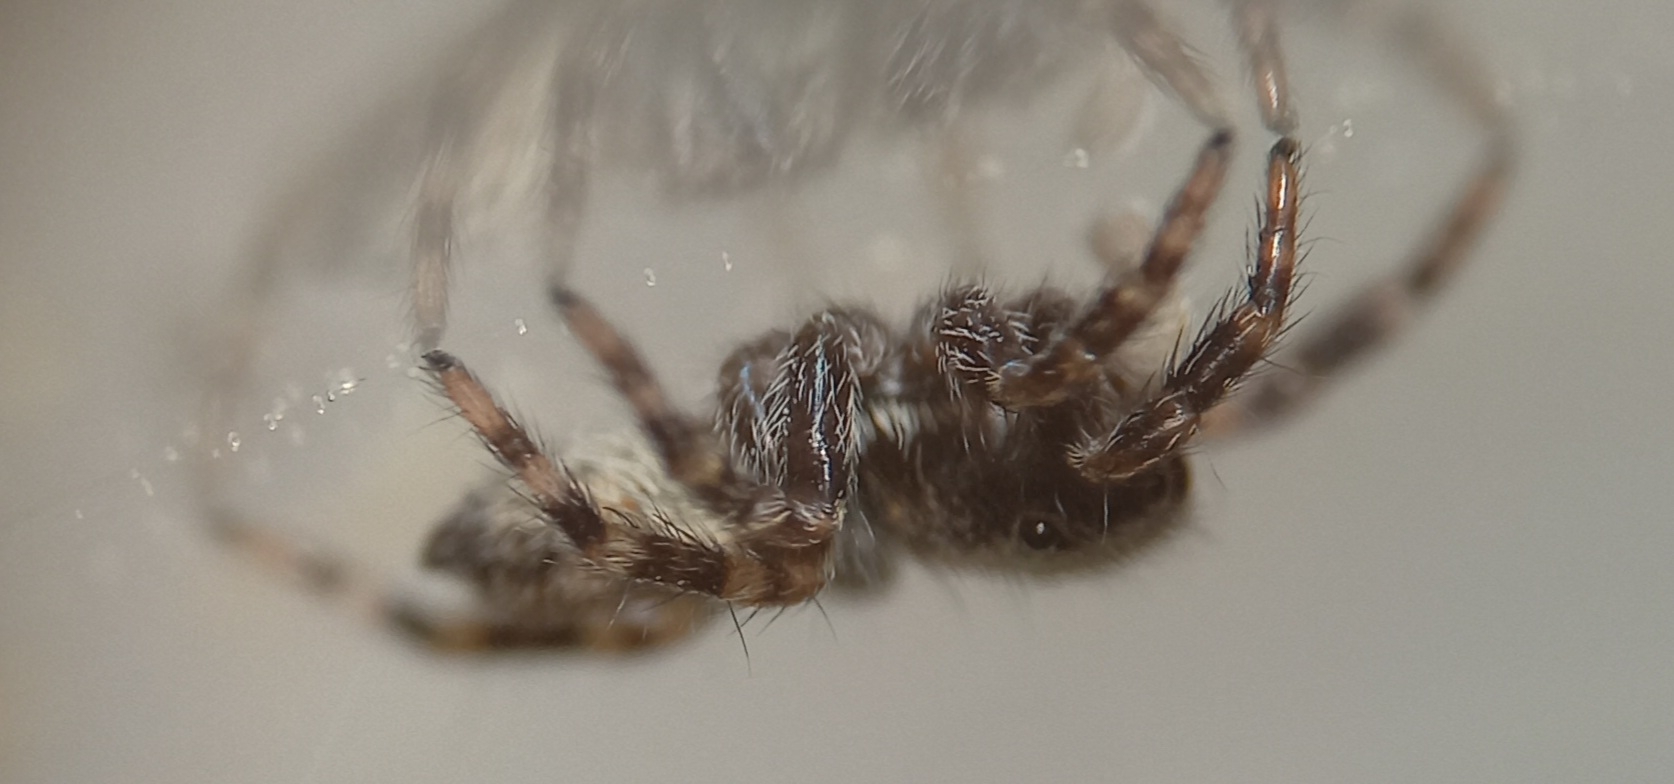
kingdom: Animalia
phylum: Arthropoda
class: Arachnida
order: Araneae
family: Salticidae
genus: Pseudeuophrys
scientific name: Pseudeuophrys lanigera
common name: Jumping spider
